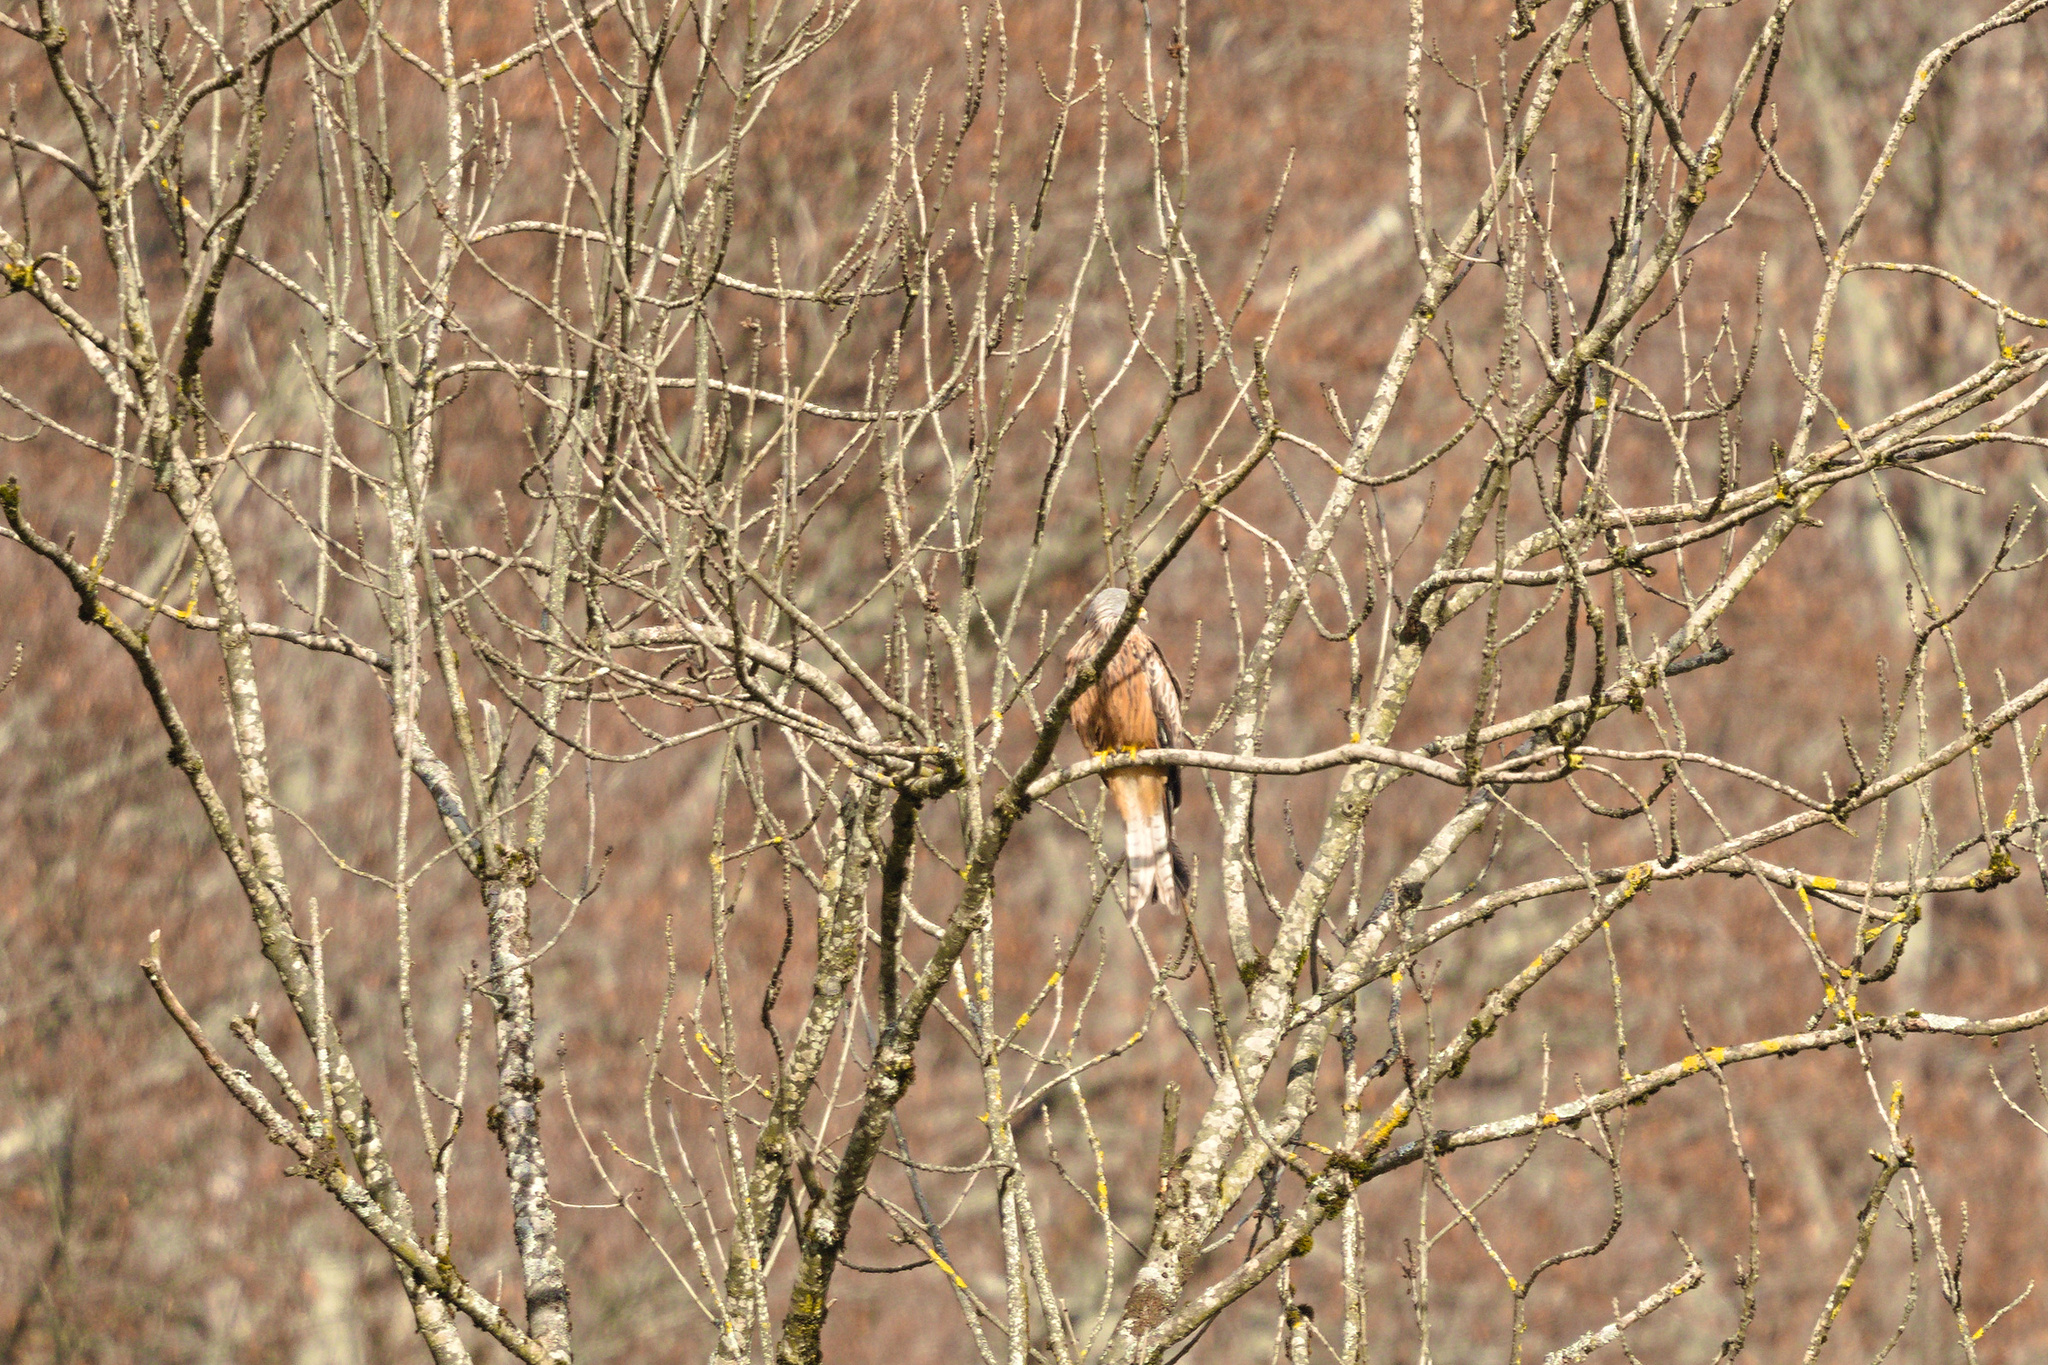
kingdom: Animalia
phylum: Chordata
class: Aves
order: Accipitriformes
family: Accipitridae
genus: Milvus
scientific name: Milvus milvus
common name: Red kite
